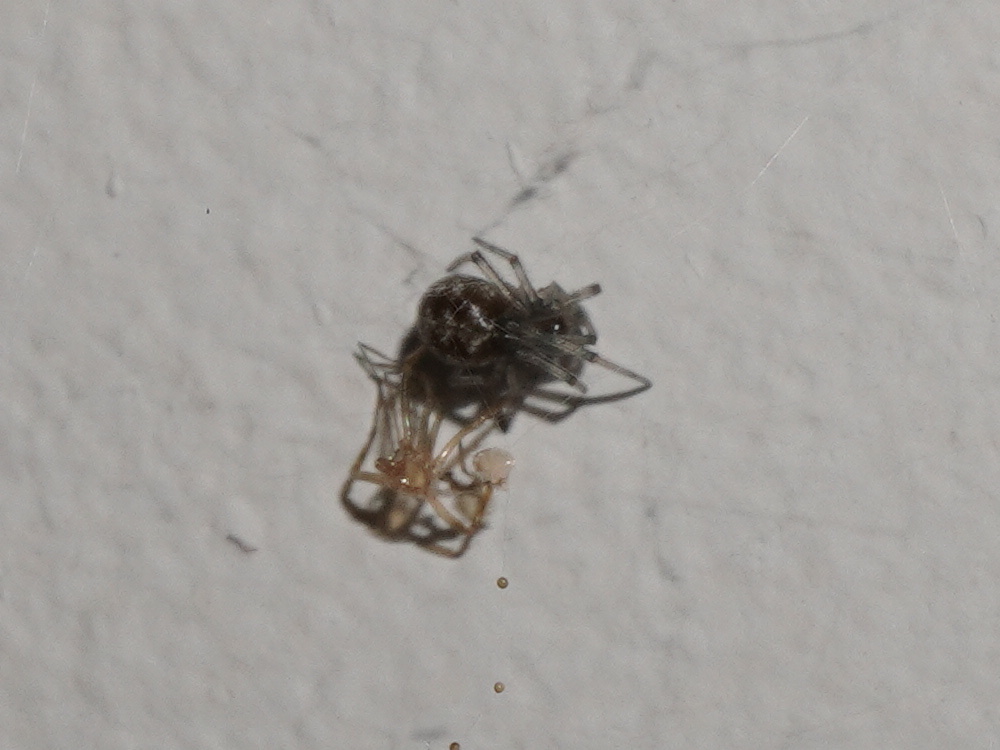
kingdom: Animalia
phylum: Arthropoda
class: Arachnida
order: Araneae
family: Theridiidae
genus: Steatoda
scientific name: Steatoda triangulosa
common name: Triangulate bud spider
